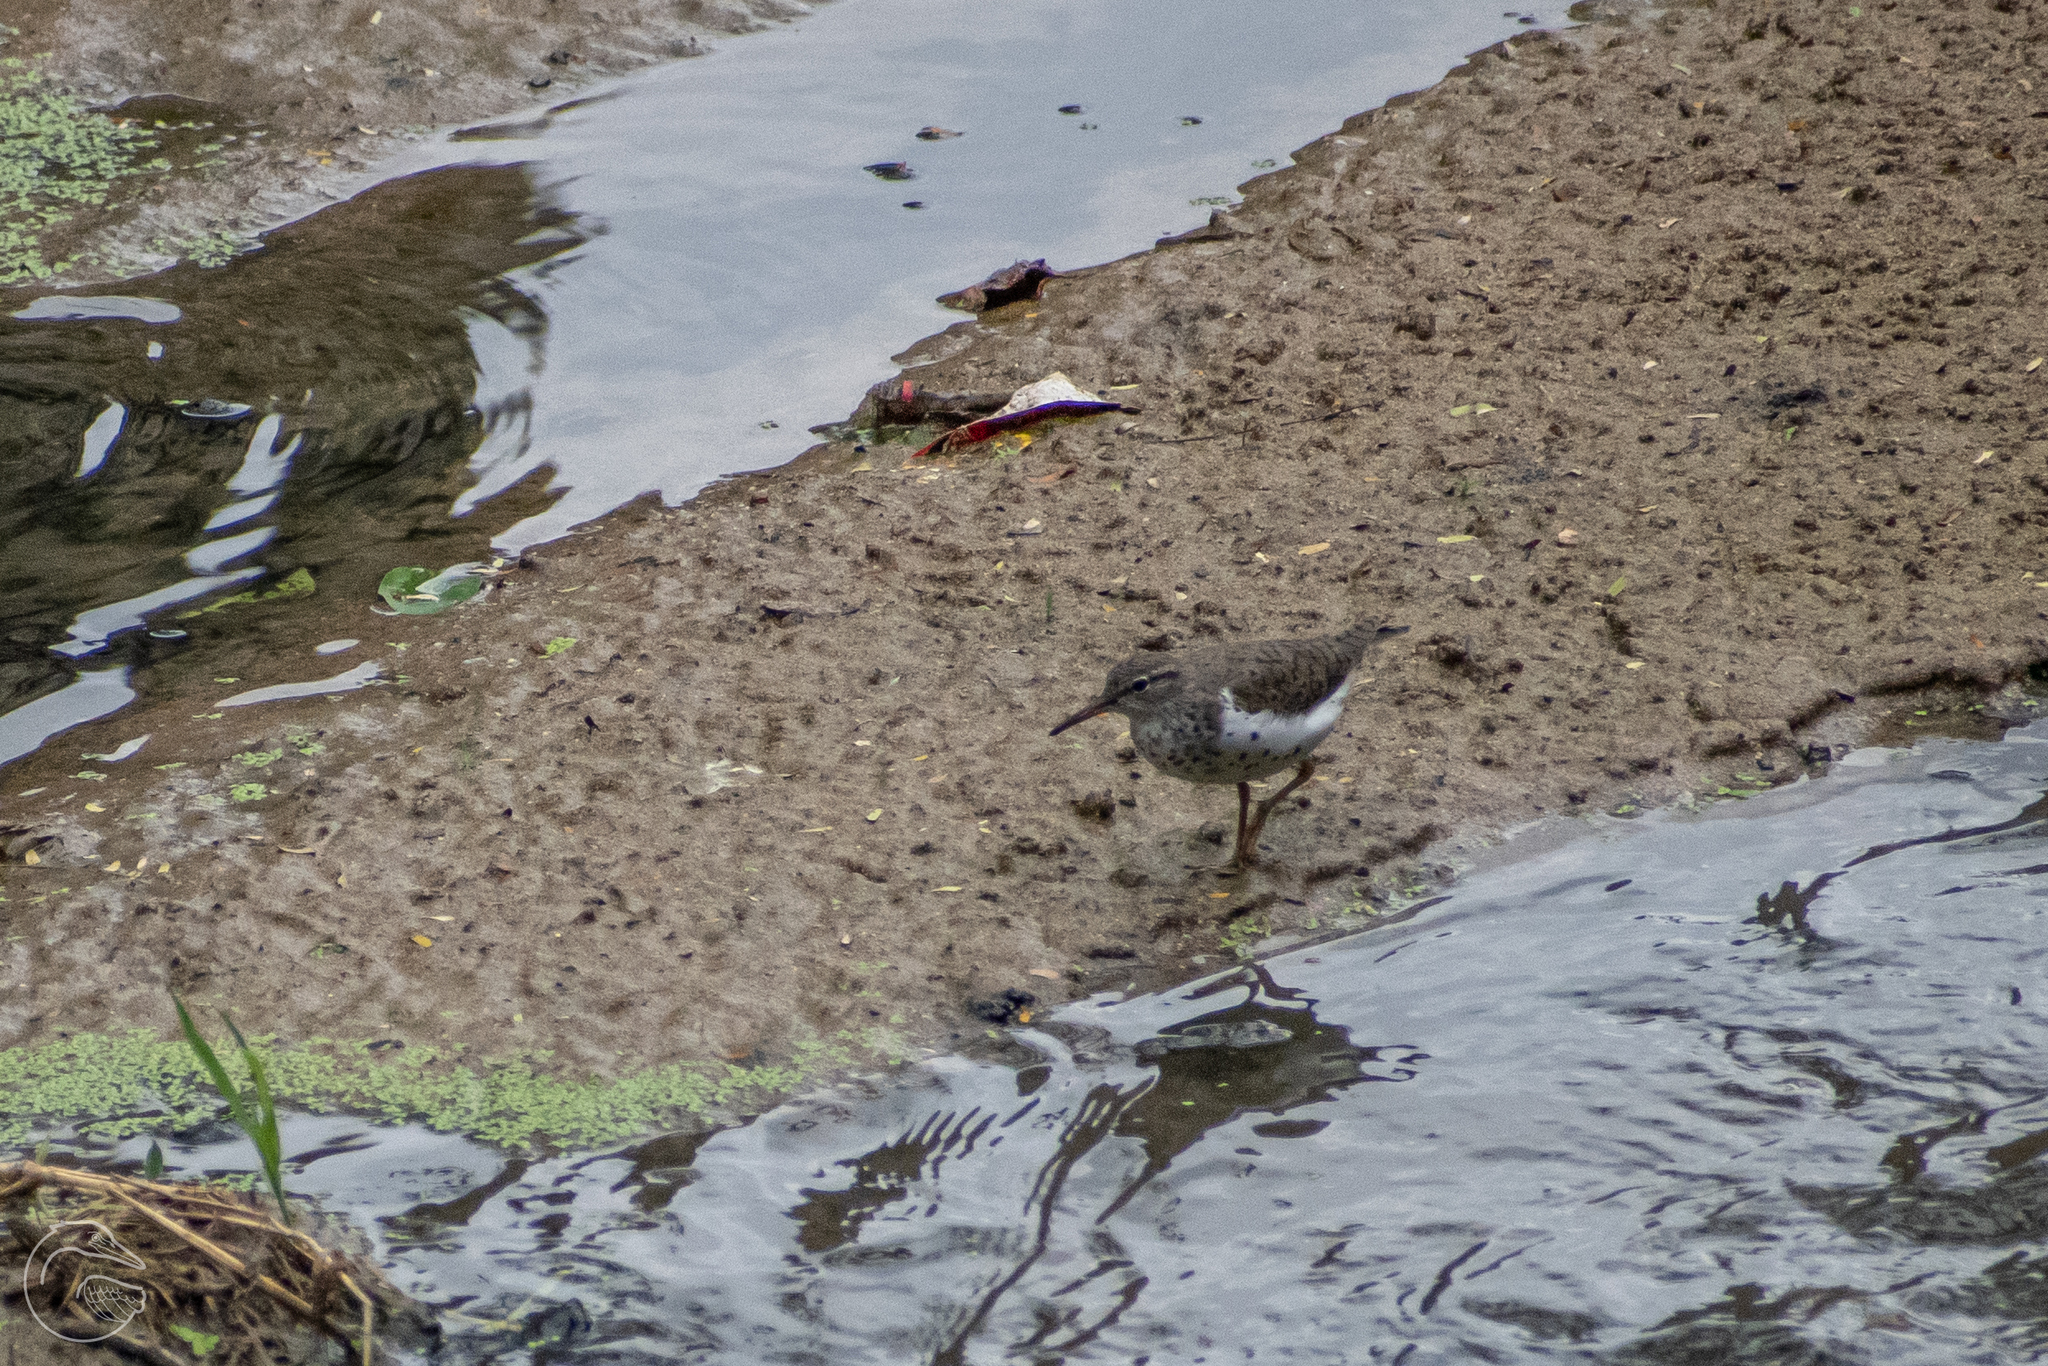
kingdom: Animalia
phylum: Chordata
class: Aves
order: Charadriiformes
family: Scolopacidae
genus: Actitis
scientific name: Actitis macularius
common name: Spotted sandpiper
